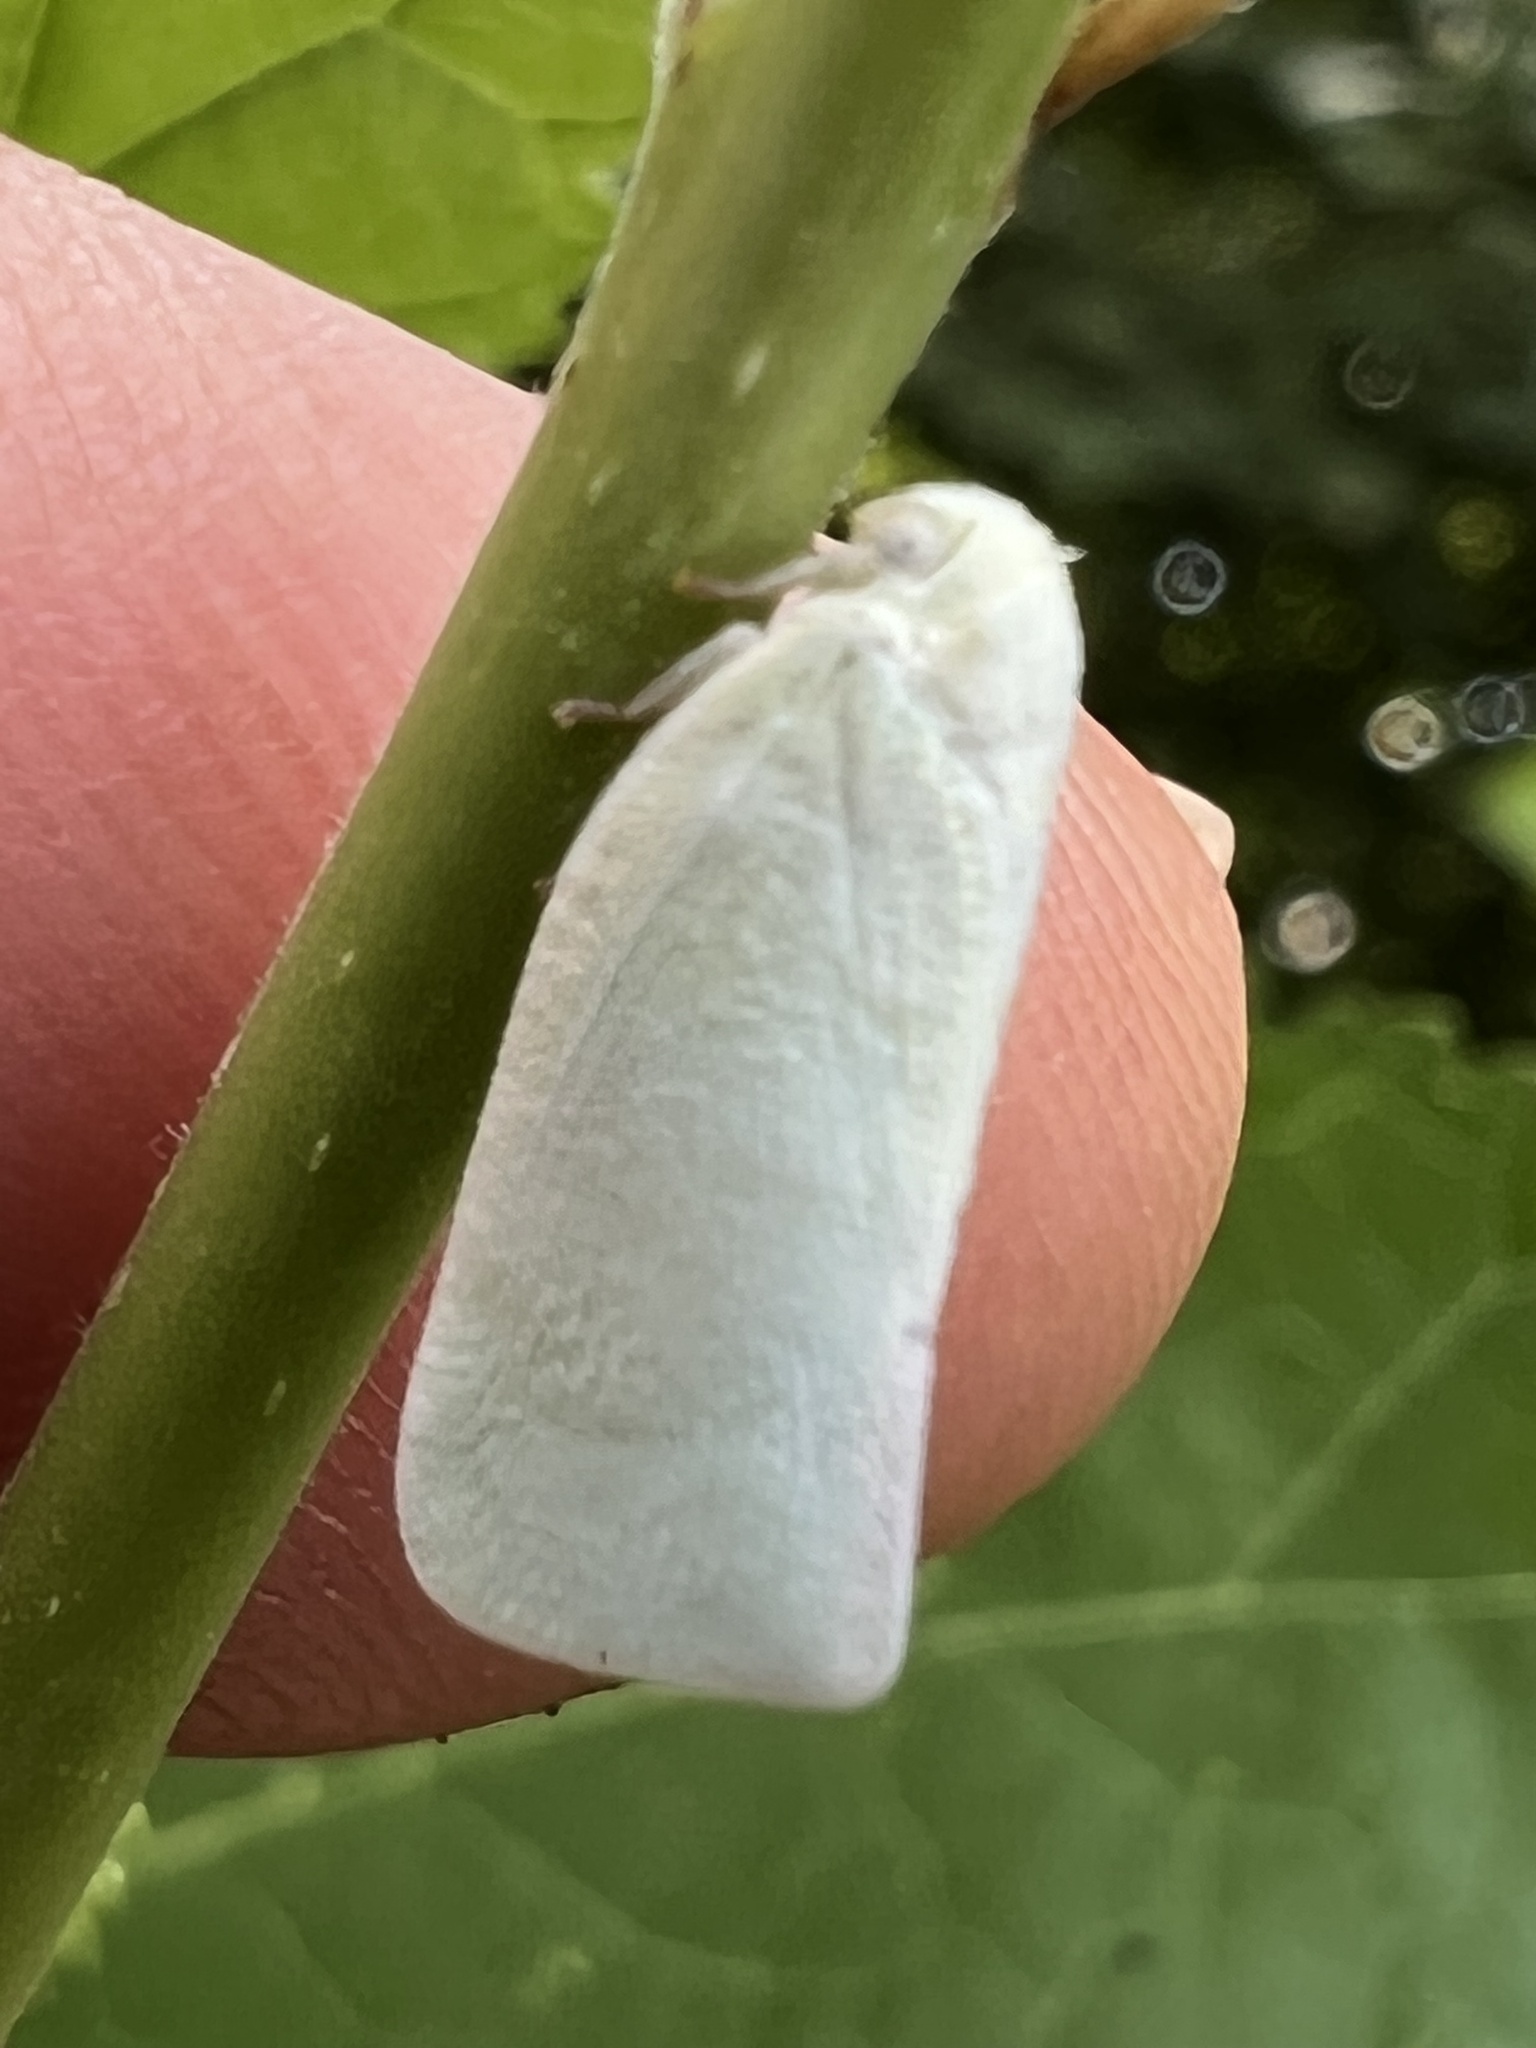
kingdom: Animalia
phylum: Arthropoda
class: Insecta
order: Hemiptera
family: Flatidae
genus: Flatormenis
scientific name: Flatormenis proxima
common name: Northern flatid planthopper
